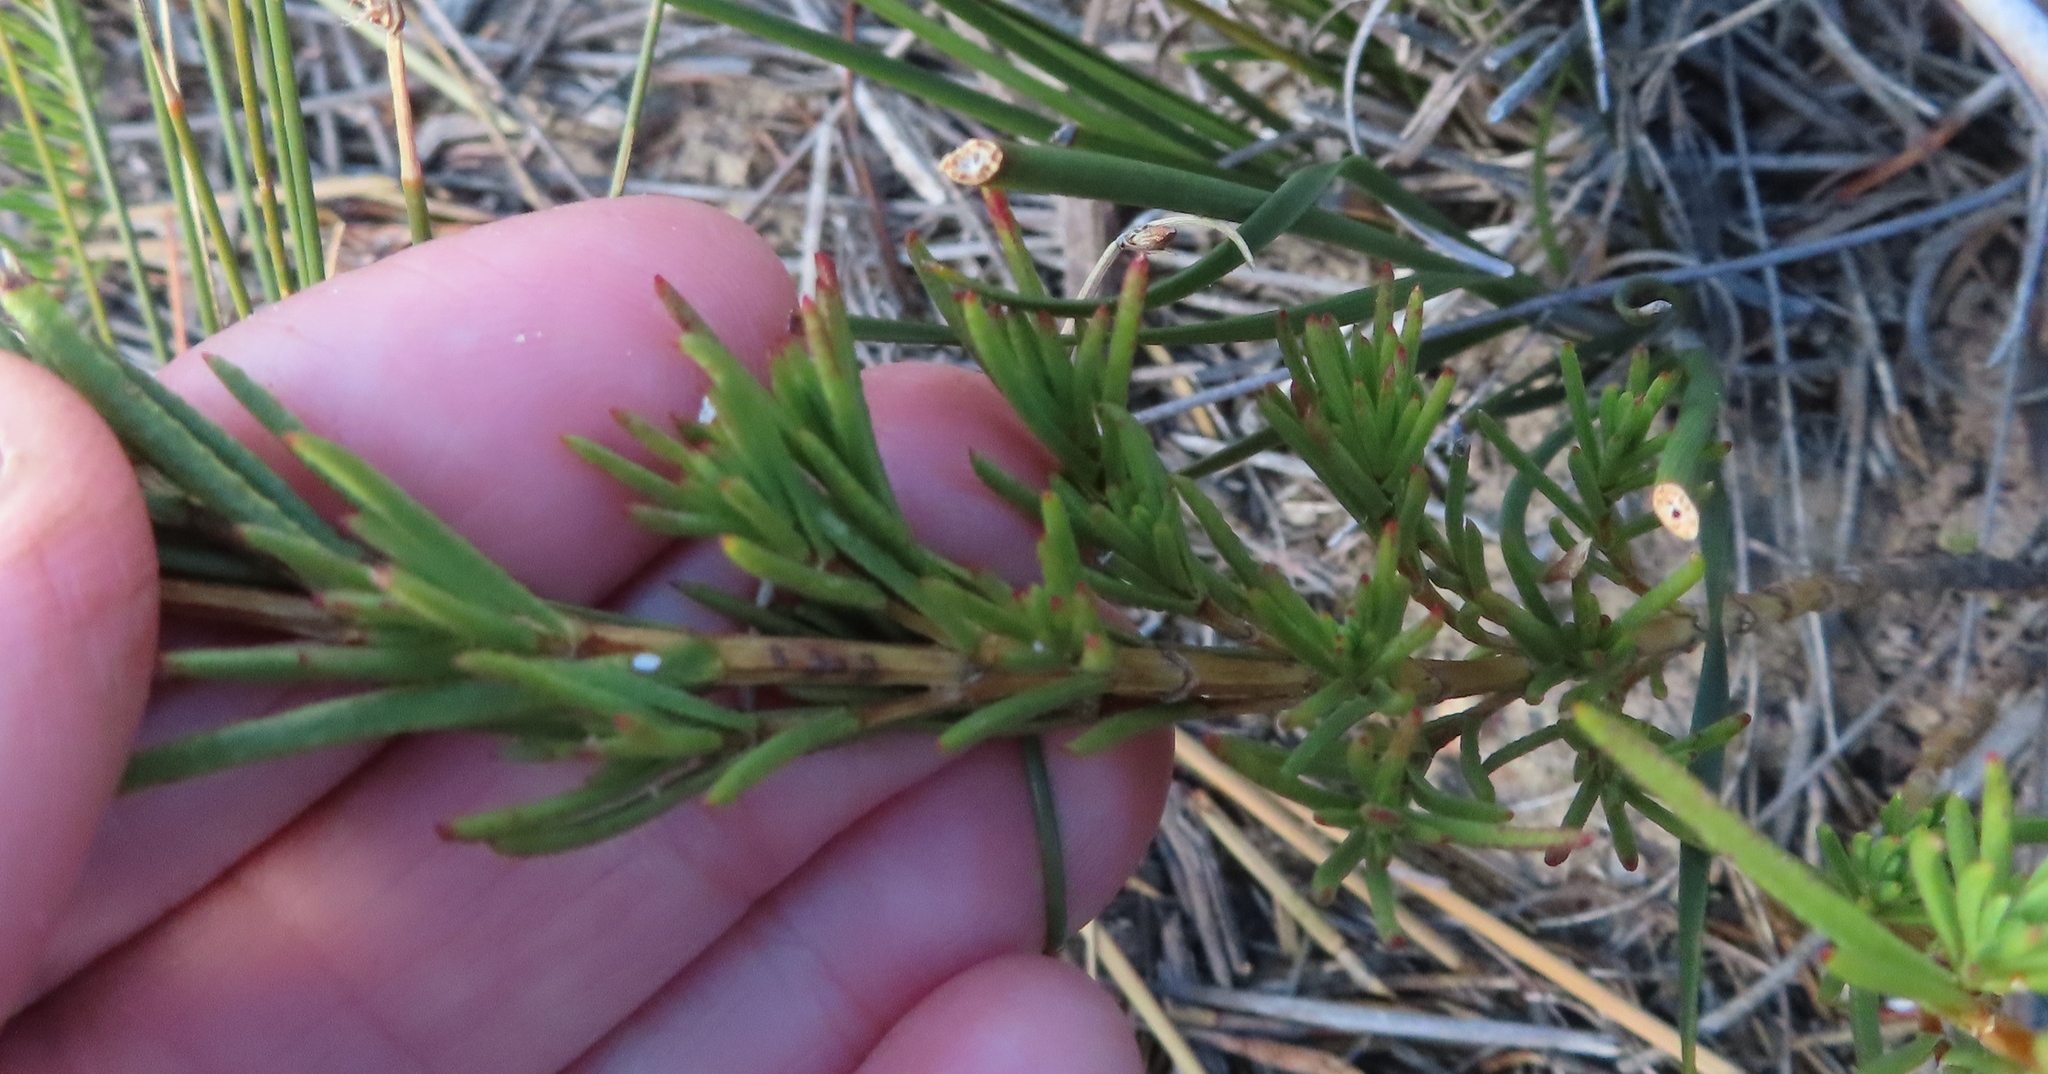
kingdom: Plantae
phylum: Tracheophyta
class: Magnoliopsida
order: Asterales
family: Asteraceae
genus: Pteronia
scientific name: Pteronia tenuifolia
